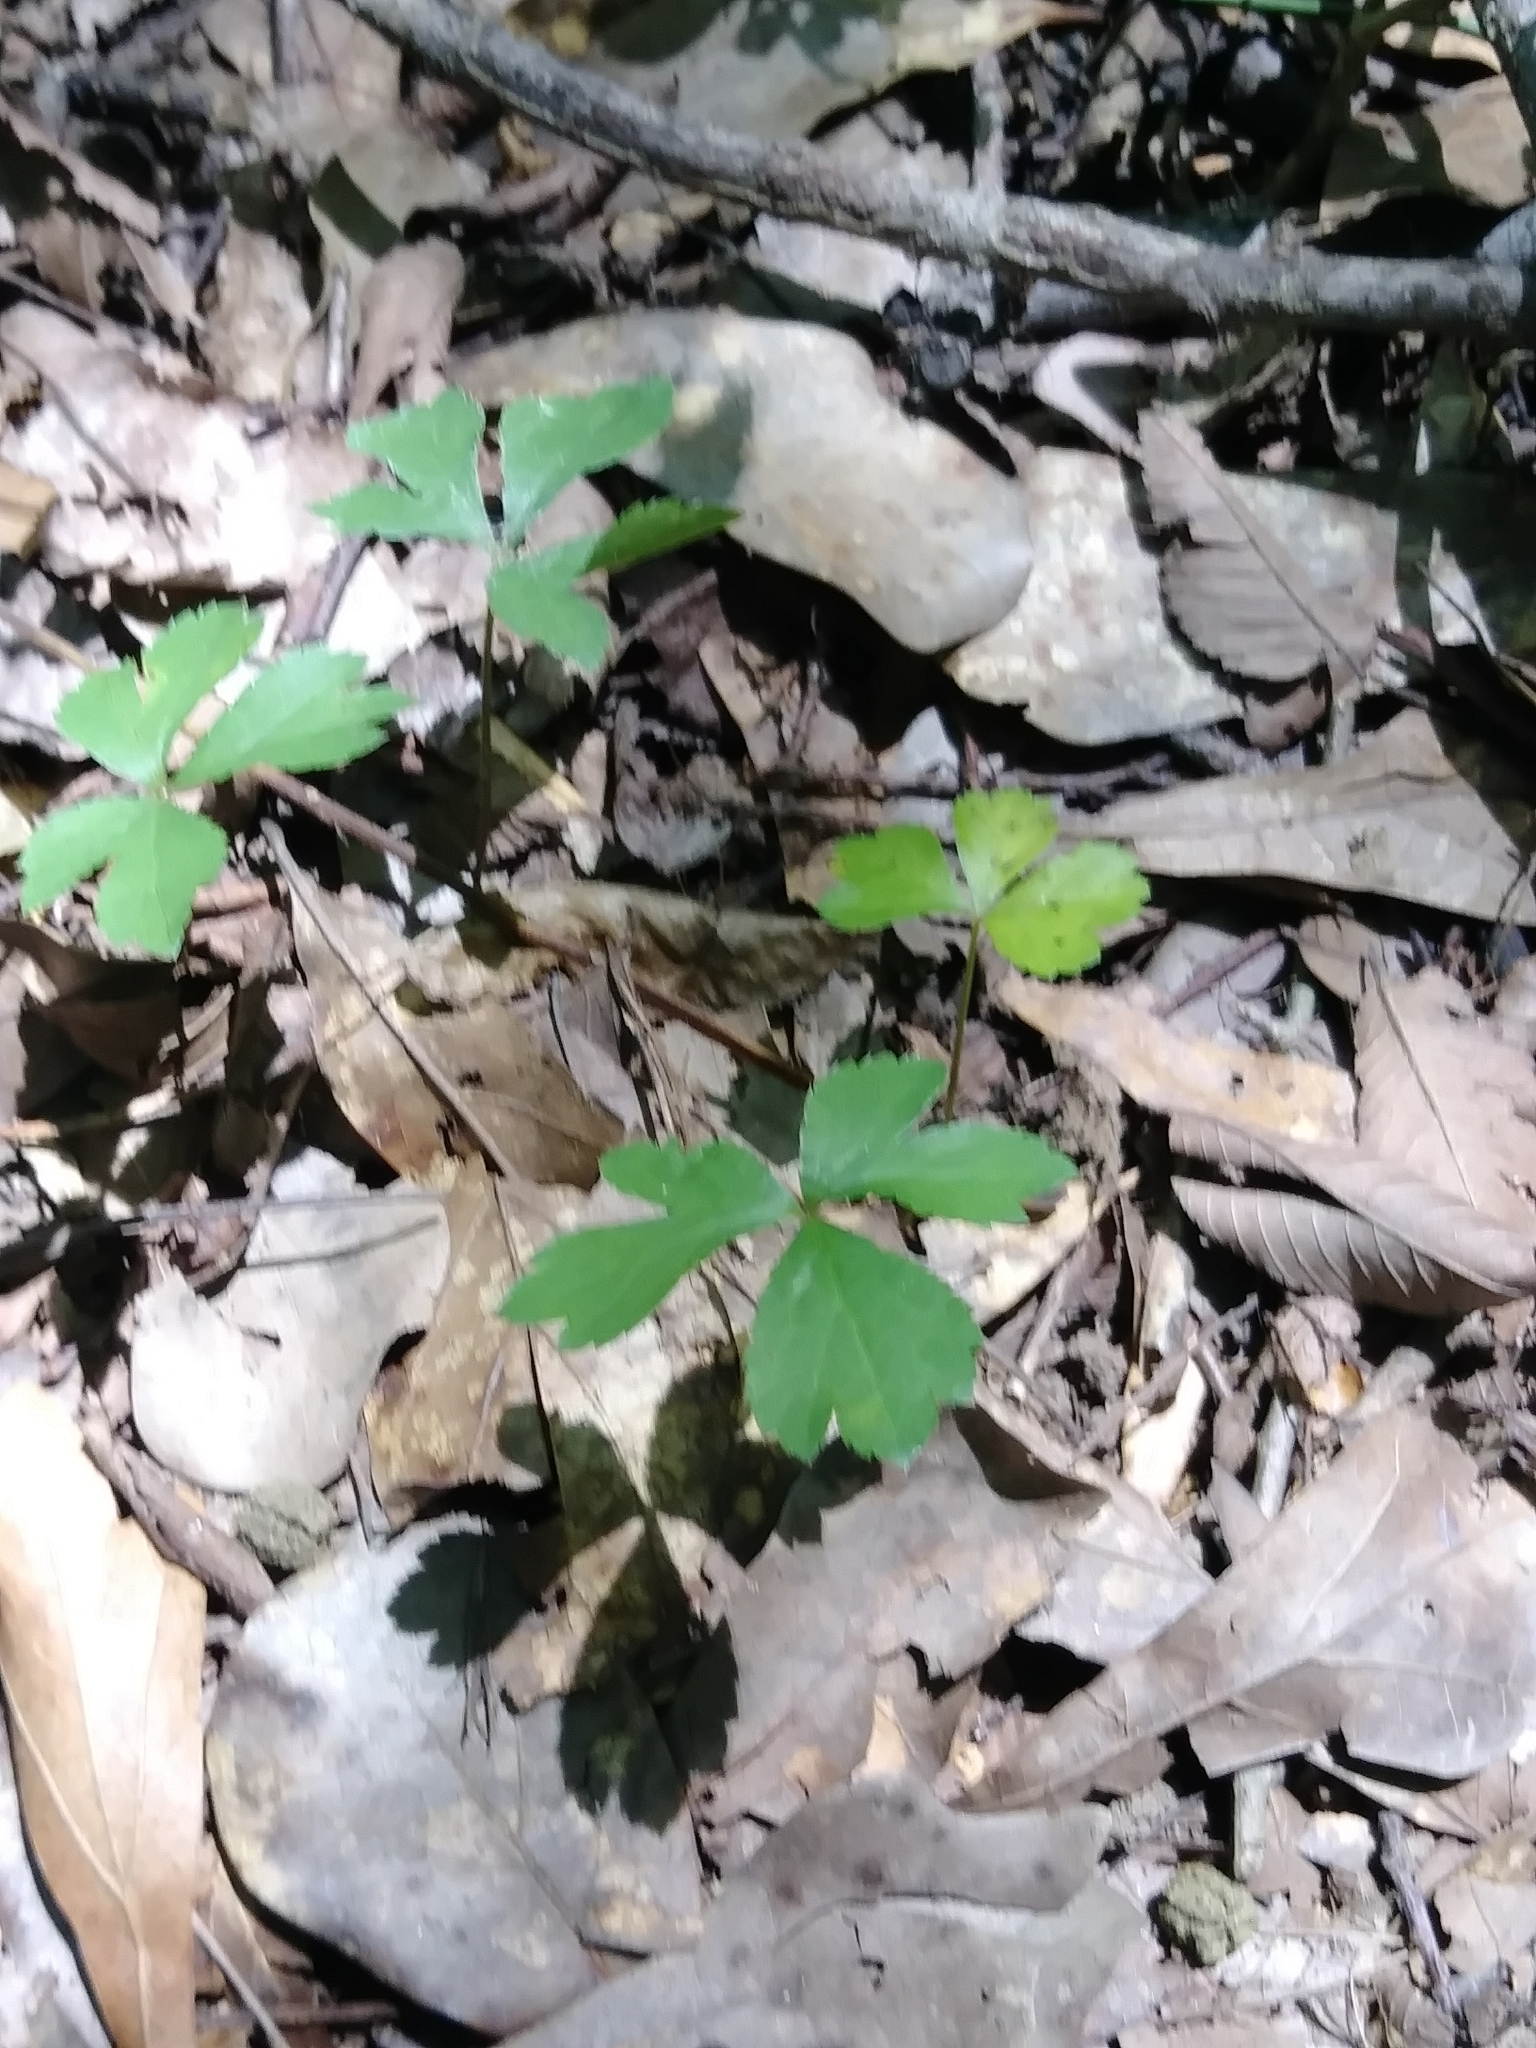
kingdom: Plantae
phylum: Tracheophyta
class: Magnoliopsida
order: Apiales
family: Apiaceae
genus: Sanicula
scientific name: Sanicula canadensis
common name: Canada sanicle
